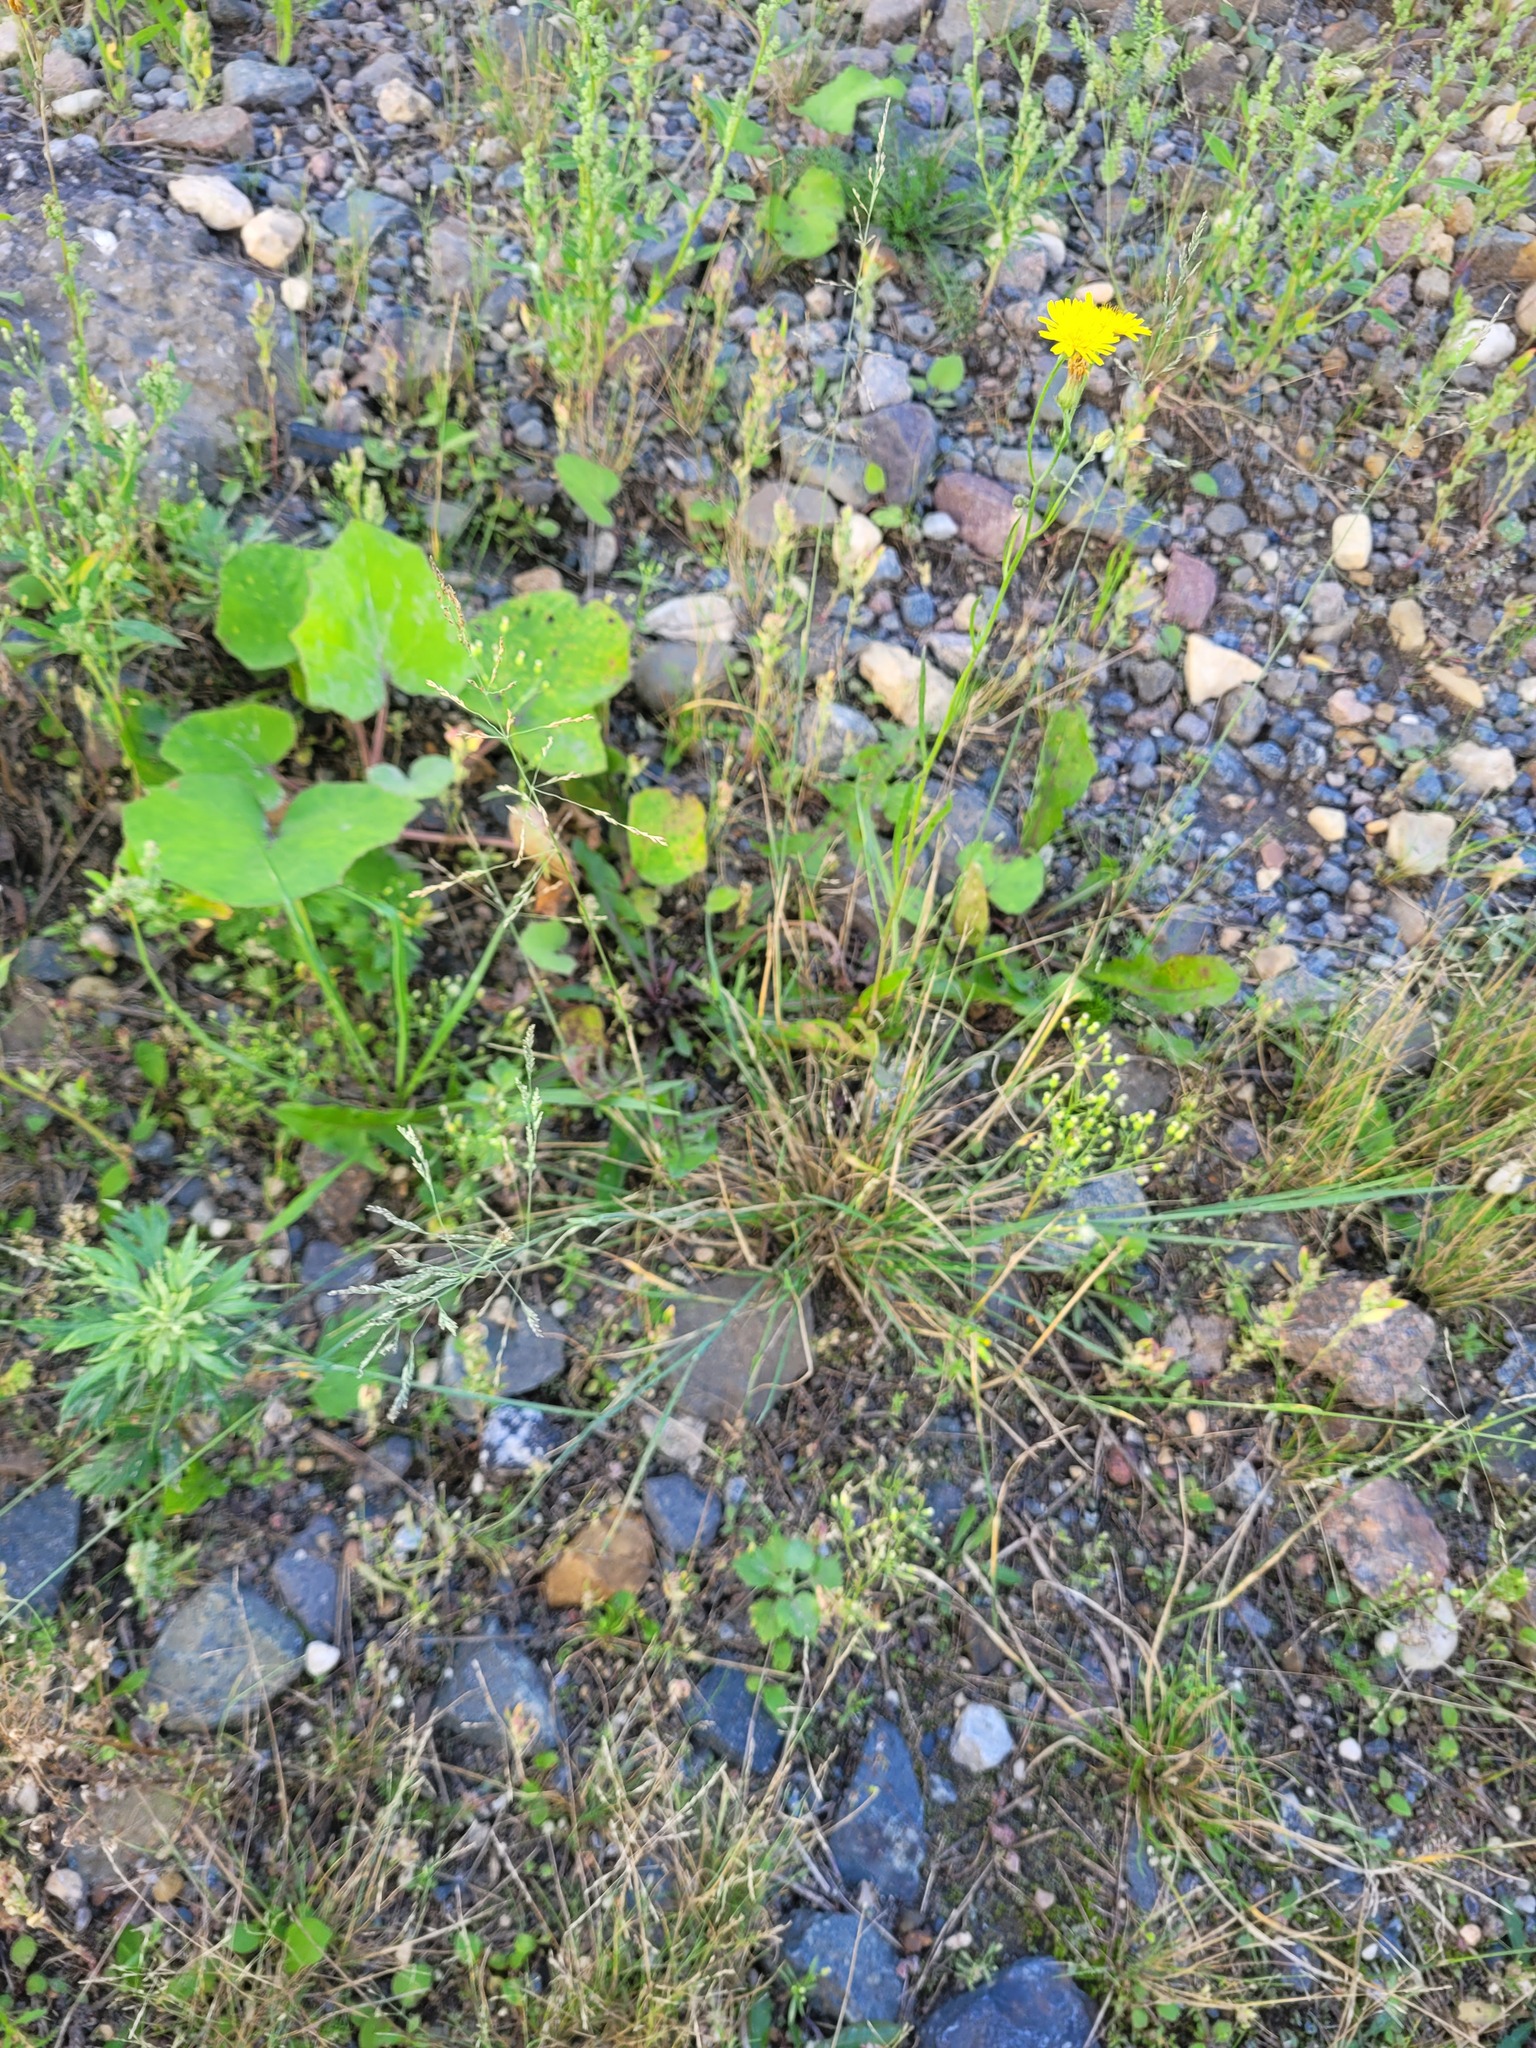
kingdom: Plantae
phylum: Tracheophyta
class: Liliopsida
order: Poales
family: Poaceae
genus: Puccinellia
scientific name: Puccinellia distans
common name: Weeping alkaligrass
